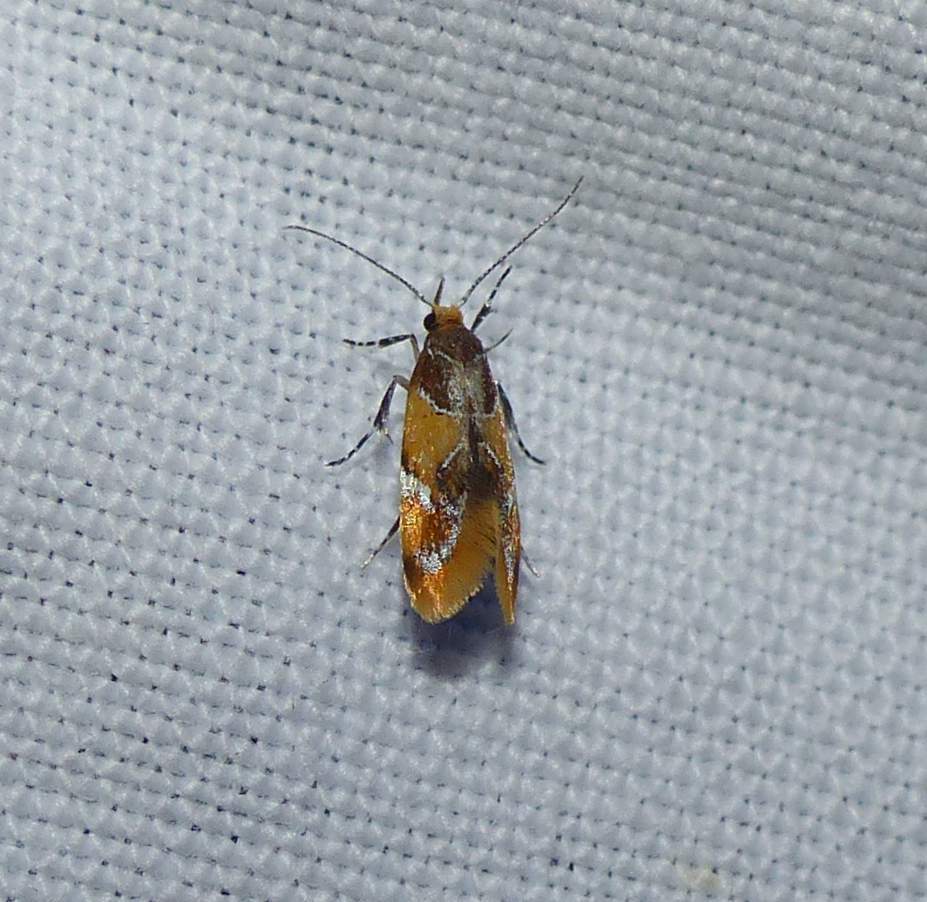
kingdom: Animalia
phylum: Arthropoda
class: Insecta
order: Lepidoptera
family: Oecophoridae
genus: Callima
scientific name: Callima argenticinctella
